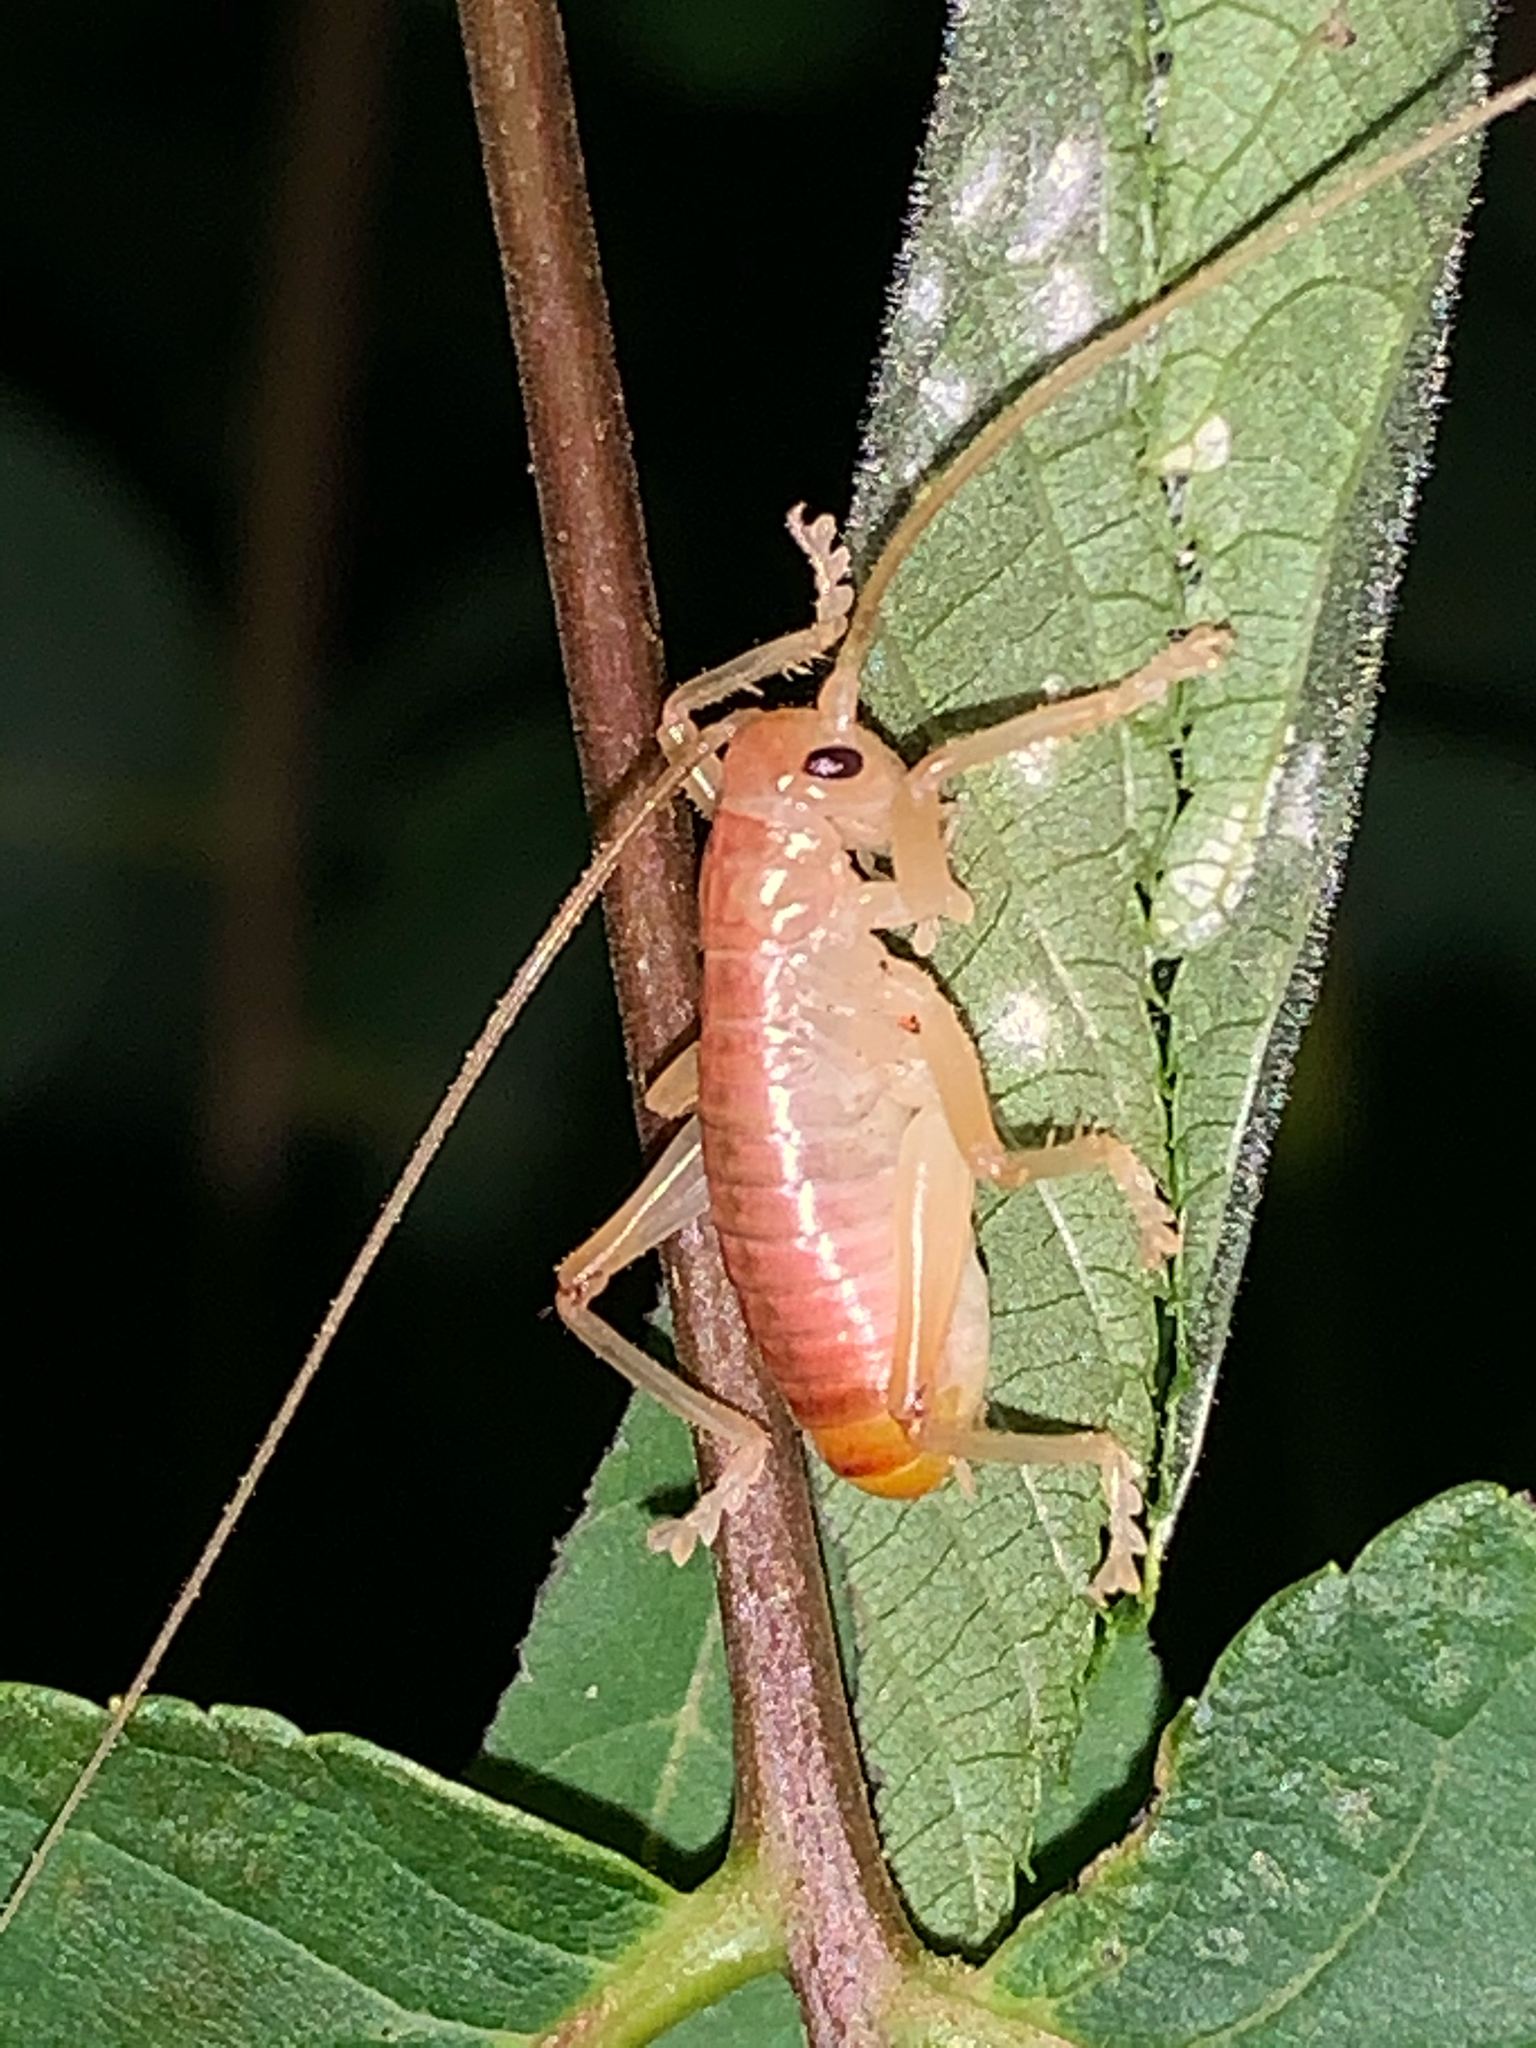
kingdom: Animalia
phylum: Arthropoda
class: Insecta
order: Orthoptera
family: Gryllacrididae
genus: Camptonotus
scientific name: Camptonotus carolinensis
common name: Carolina leaf-roller
